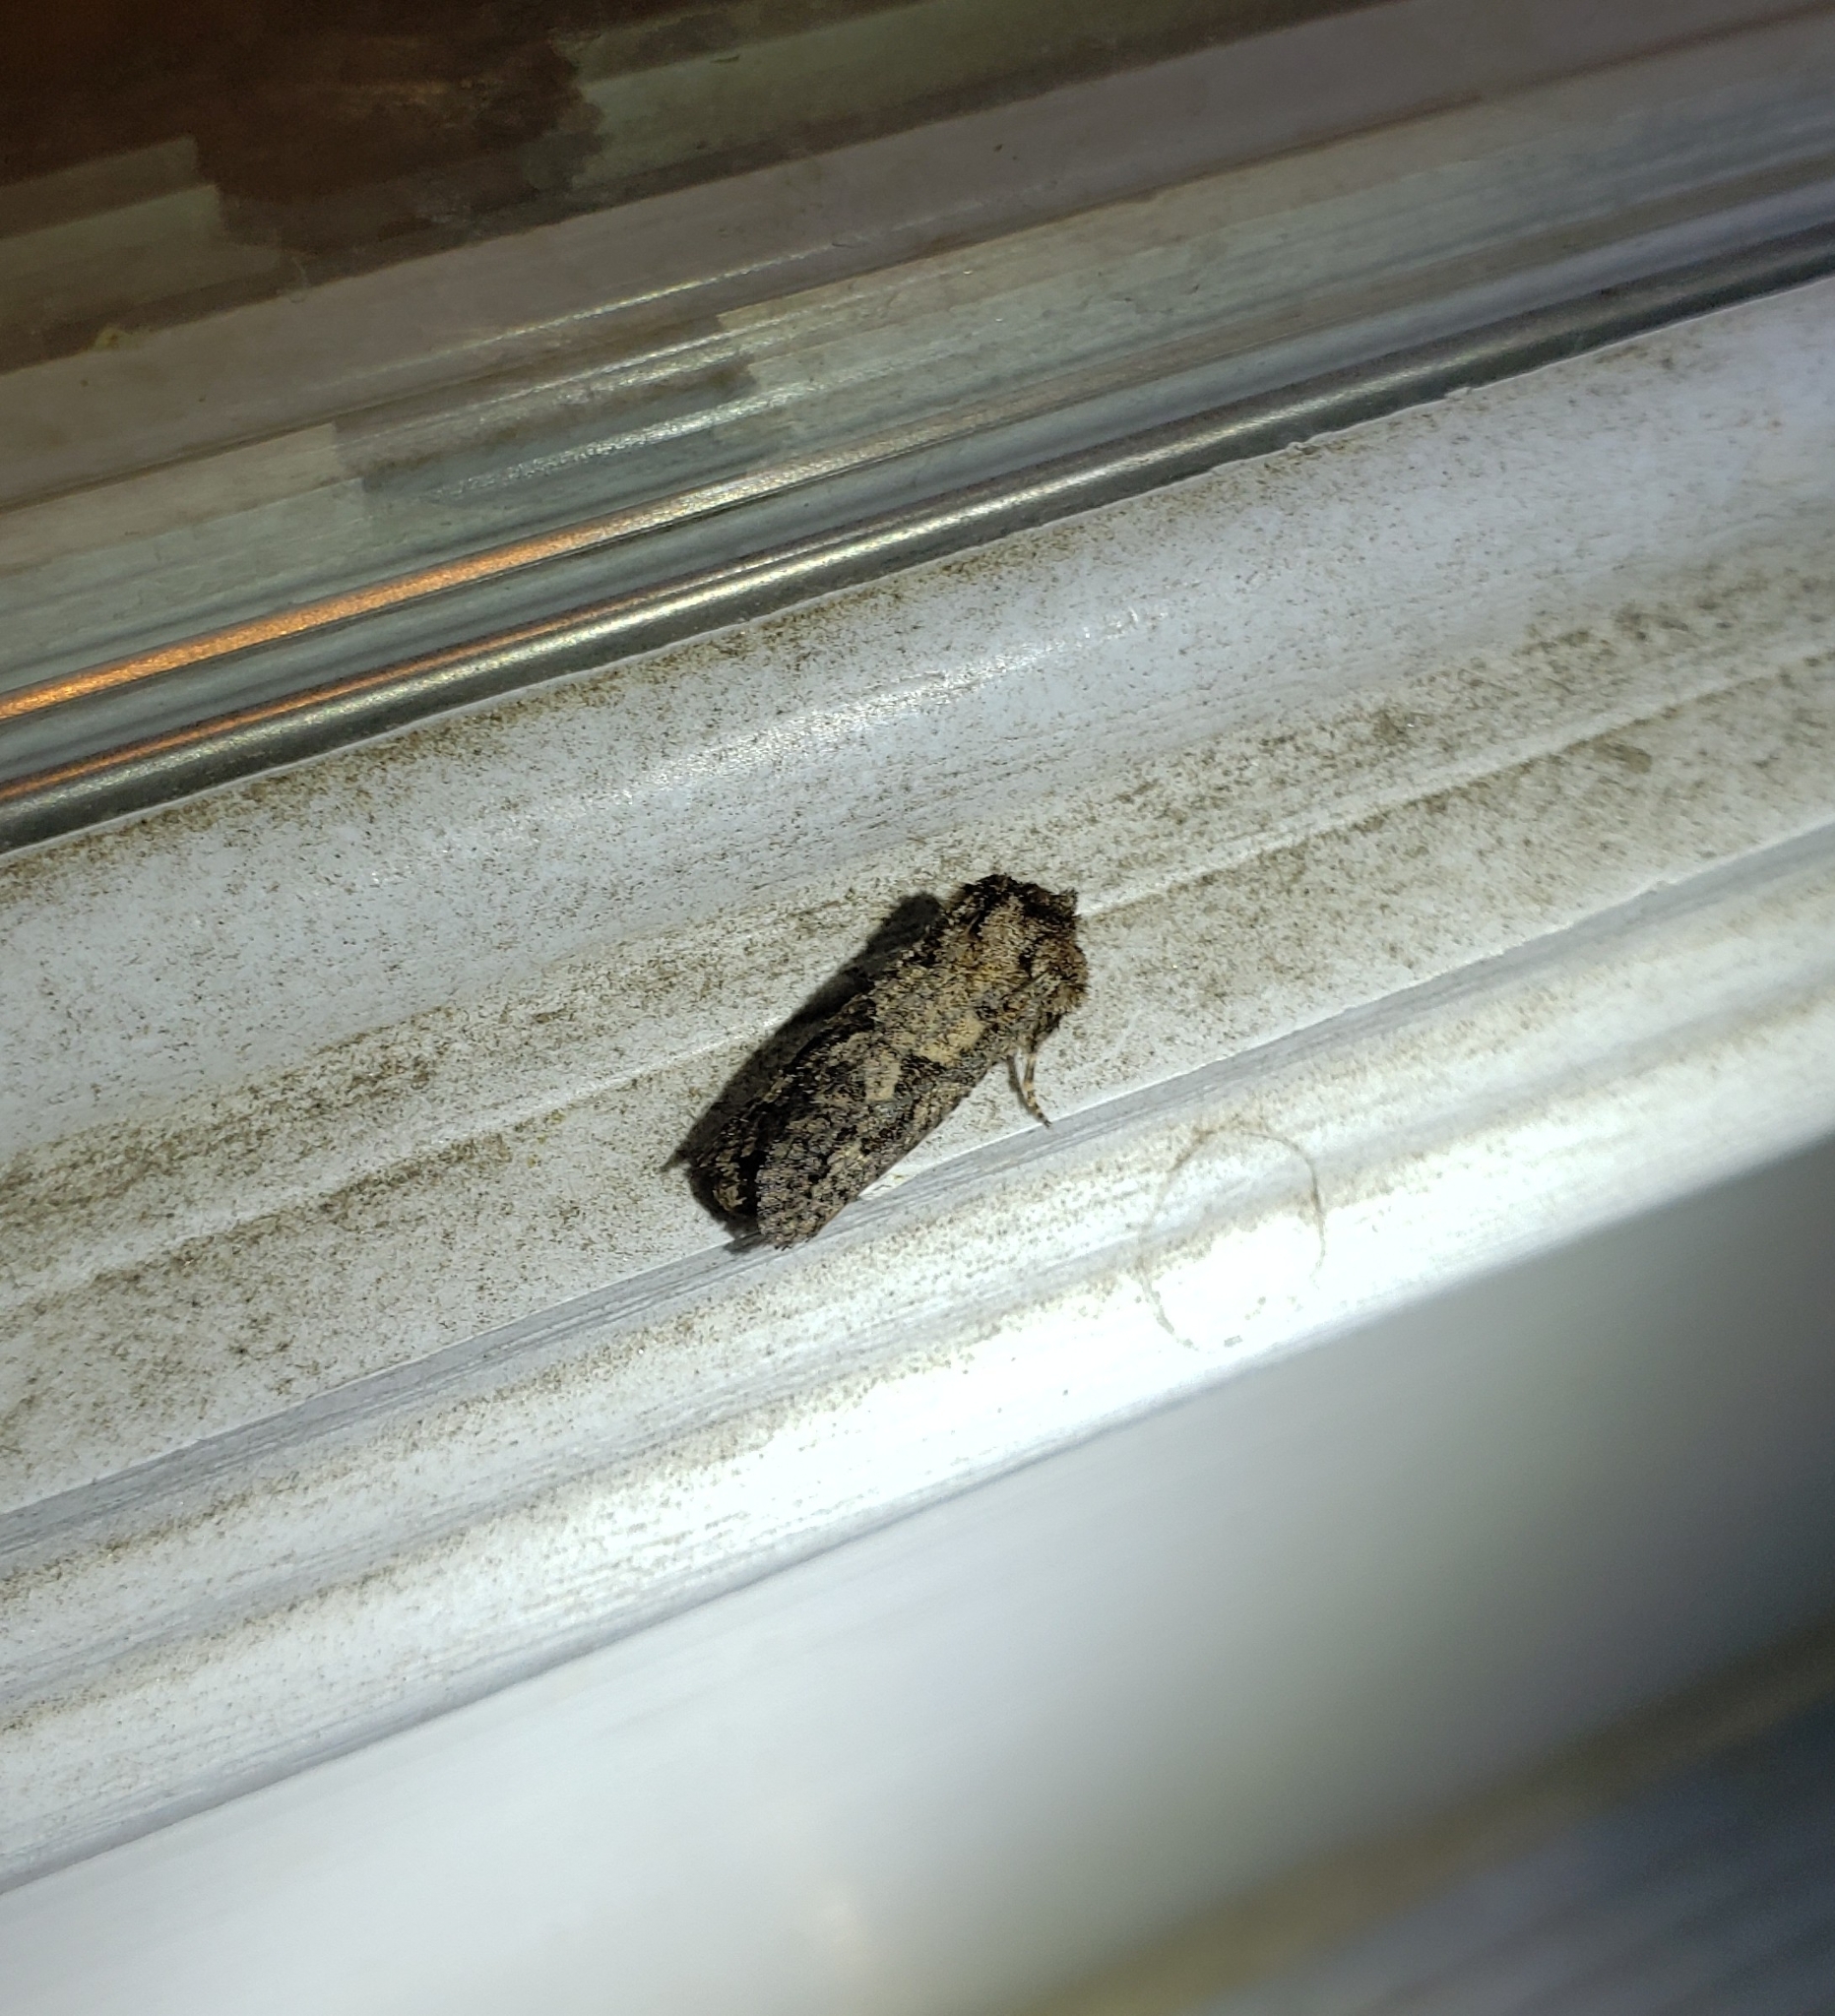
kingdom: Animalia
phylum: Arthropoda
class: Insecta
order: Lepidoptera
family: Tineidae
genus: Acrolophus
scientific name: Acrolophus arcanella
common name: Arcane grass tubeworm moth
